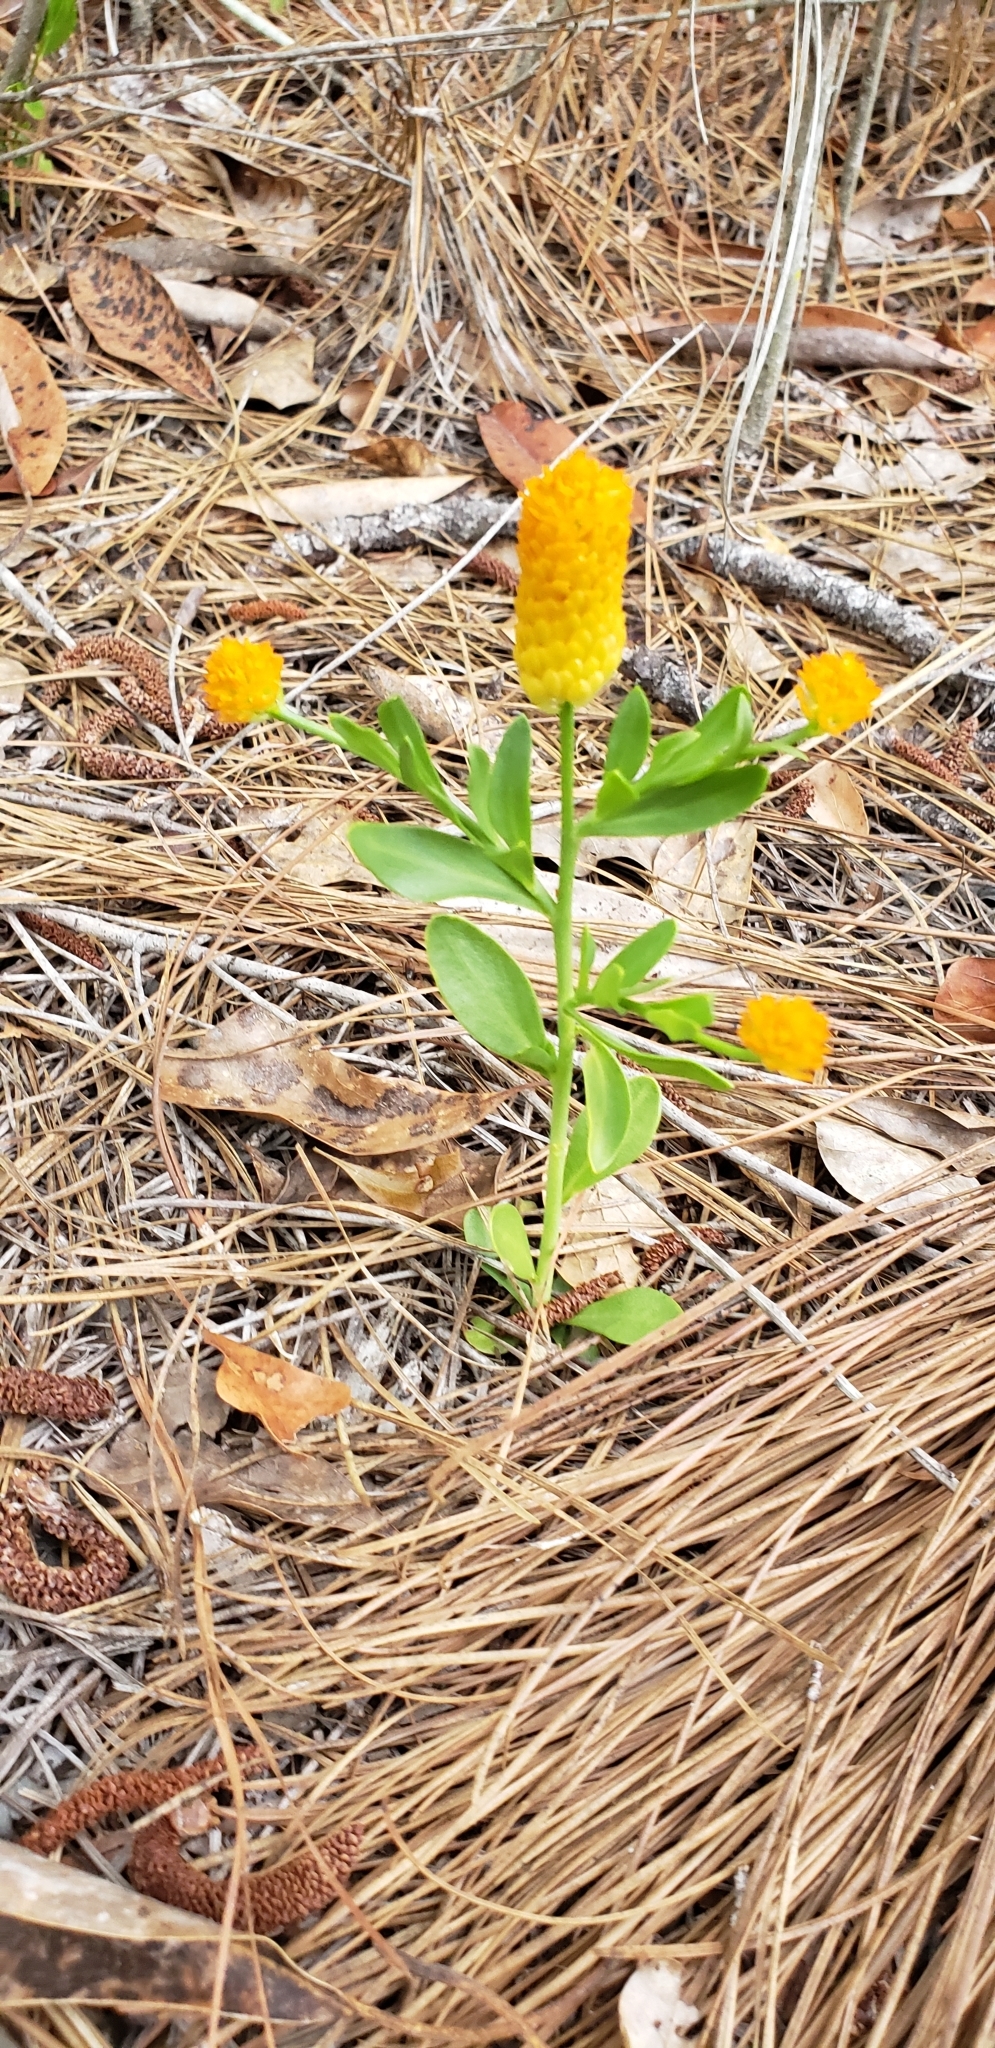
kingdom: Plantae
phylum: Tracheophyta
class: Magnoliopsida
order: Fabales
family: Polygalaceae
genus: Polygala
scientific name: Polygala lutea
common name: Orange milkwort
